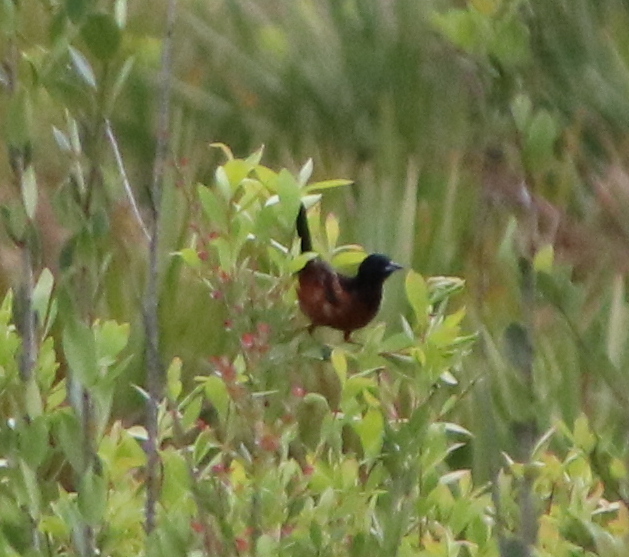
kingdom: Animalia
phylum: Chordata
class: Aves
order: Passeriformes
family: Icteridae
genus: Icterus
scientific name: Icterus spurius
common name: Orchard oriole
